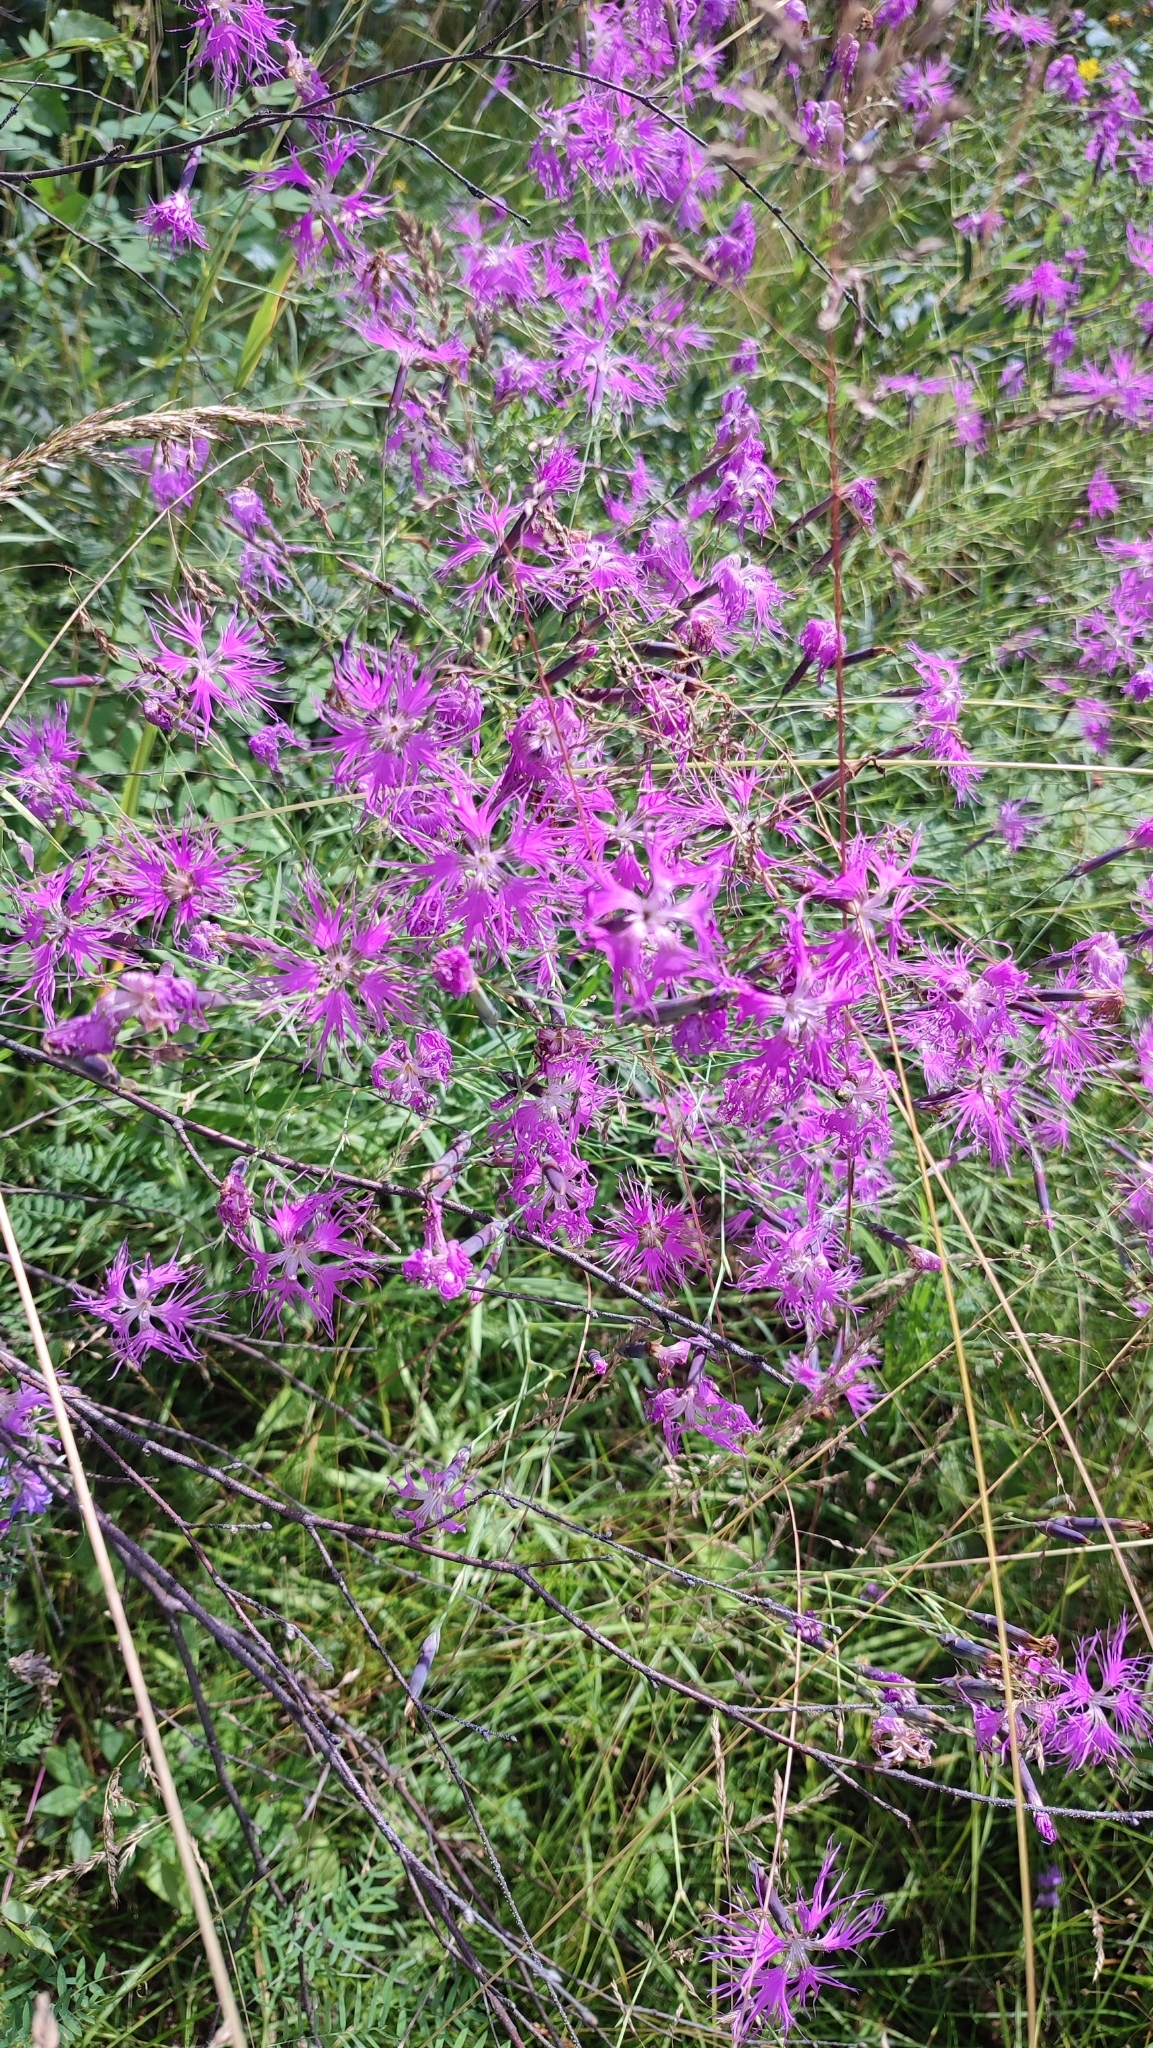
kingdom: Plantae
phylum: Tracheophyta
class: Magnoliopsida
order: Caryophyllales
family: Caryophyllaceae
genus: Dianthus
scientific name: Dianthus superbus
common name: Fringed pink
